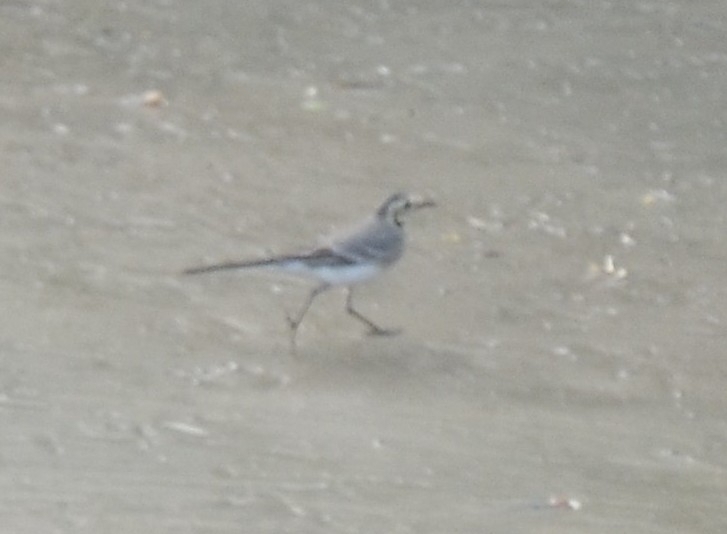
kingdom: Animalia
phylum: Chordata
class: Aves
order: Passeriformes
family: Motacillidae
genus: Motacilla
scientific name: Motacilla alba
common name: White wagtail
